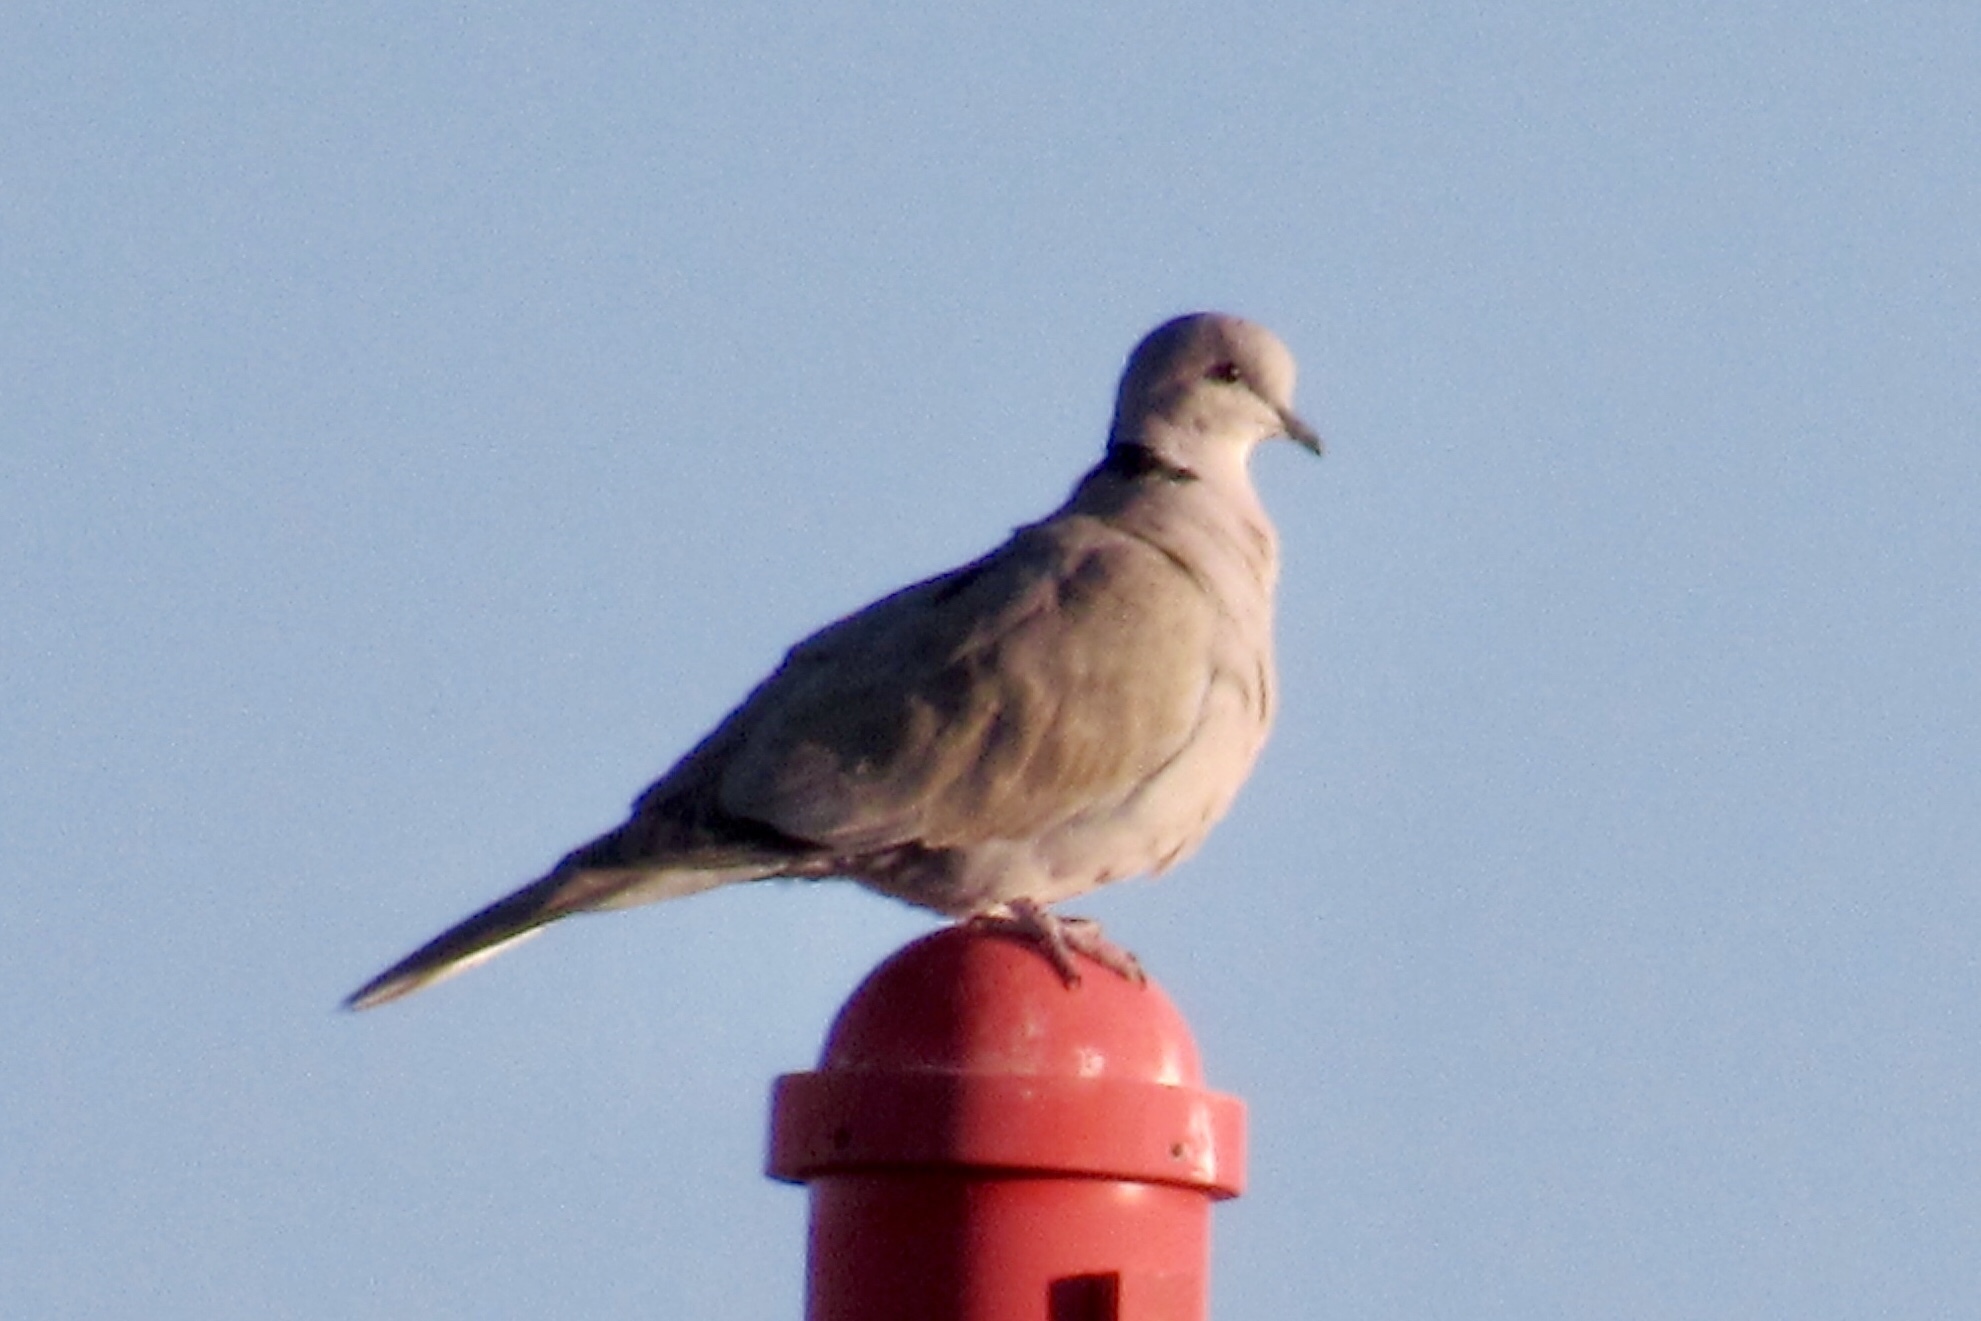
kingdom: Animalia
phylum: Chordata
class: Aves
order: Columbiformes
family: Columbidae
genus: Streptopelia
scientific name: Streptopelia decaocto
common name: Eurasian collared dove
